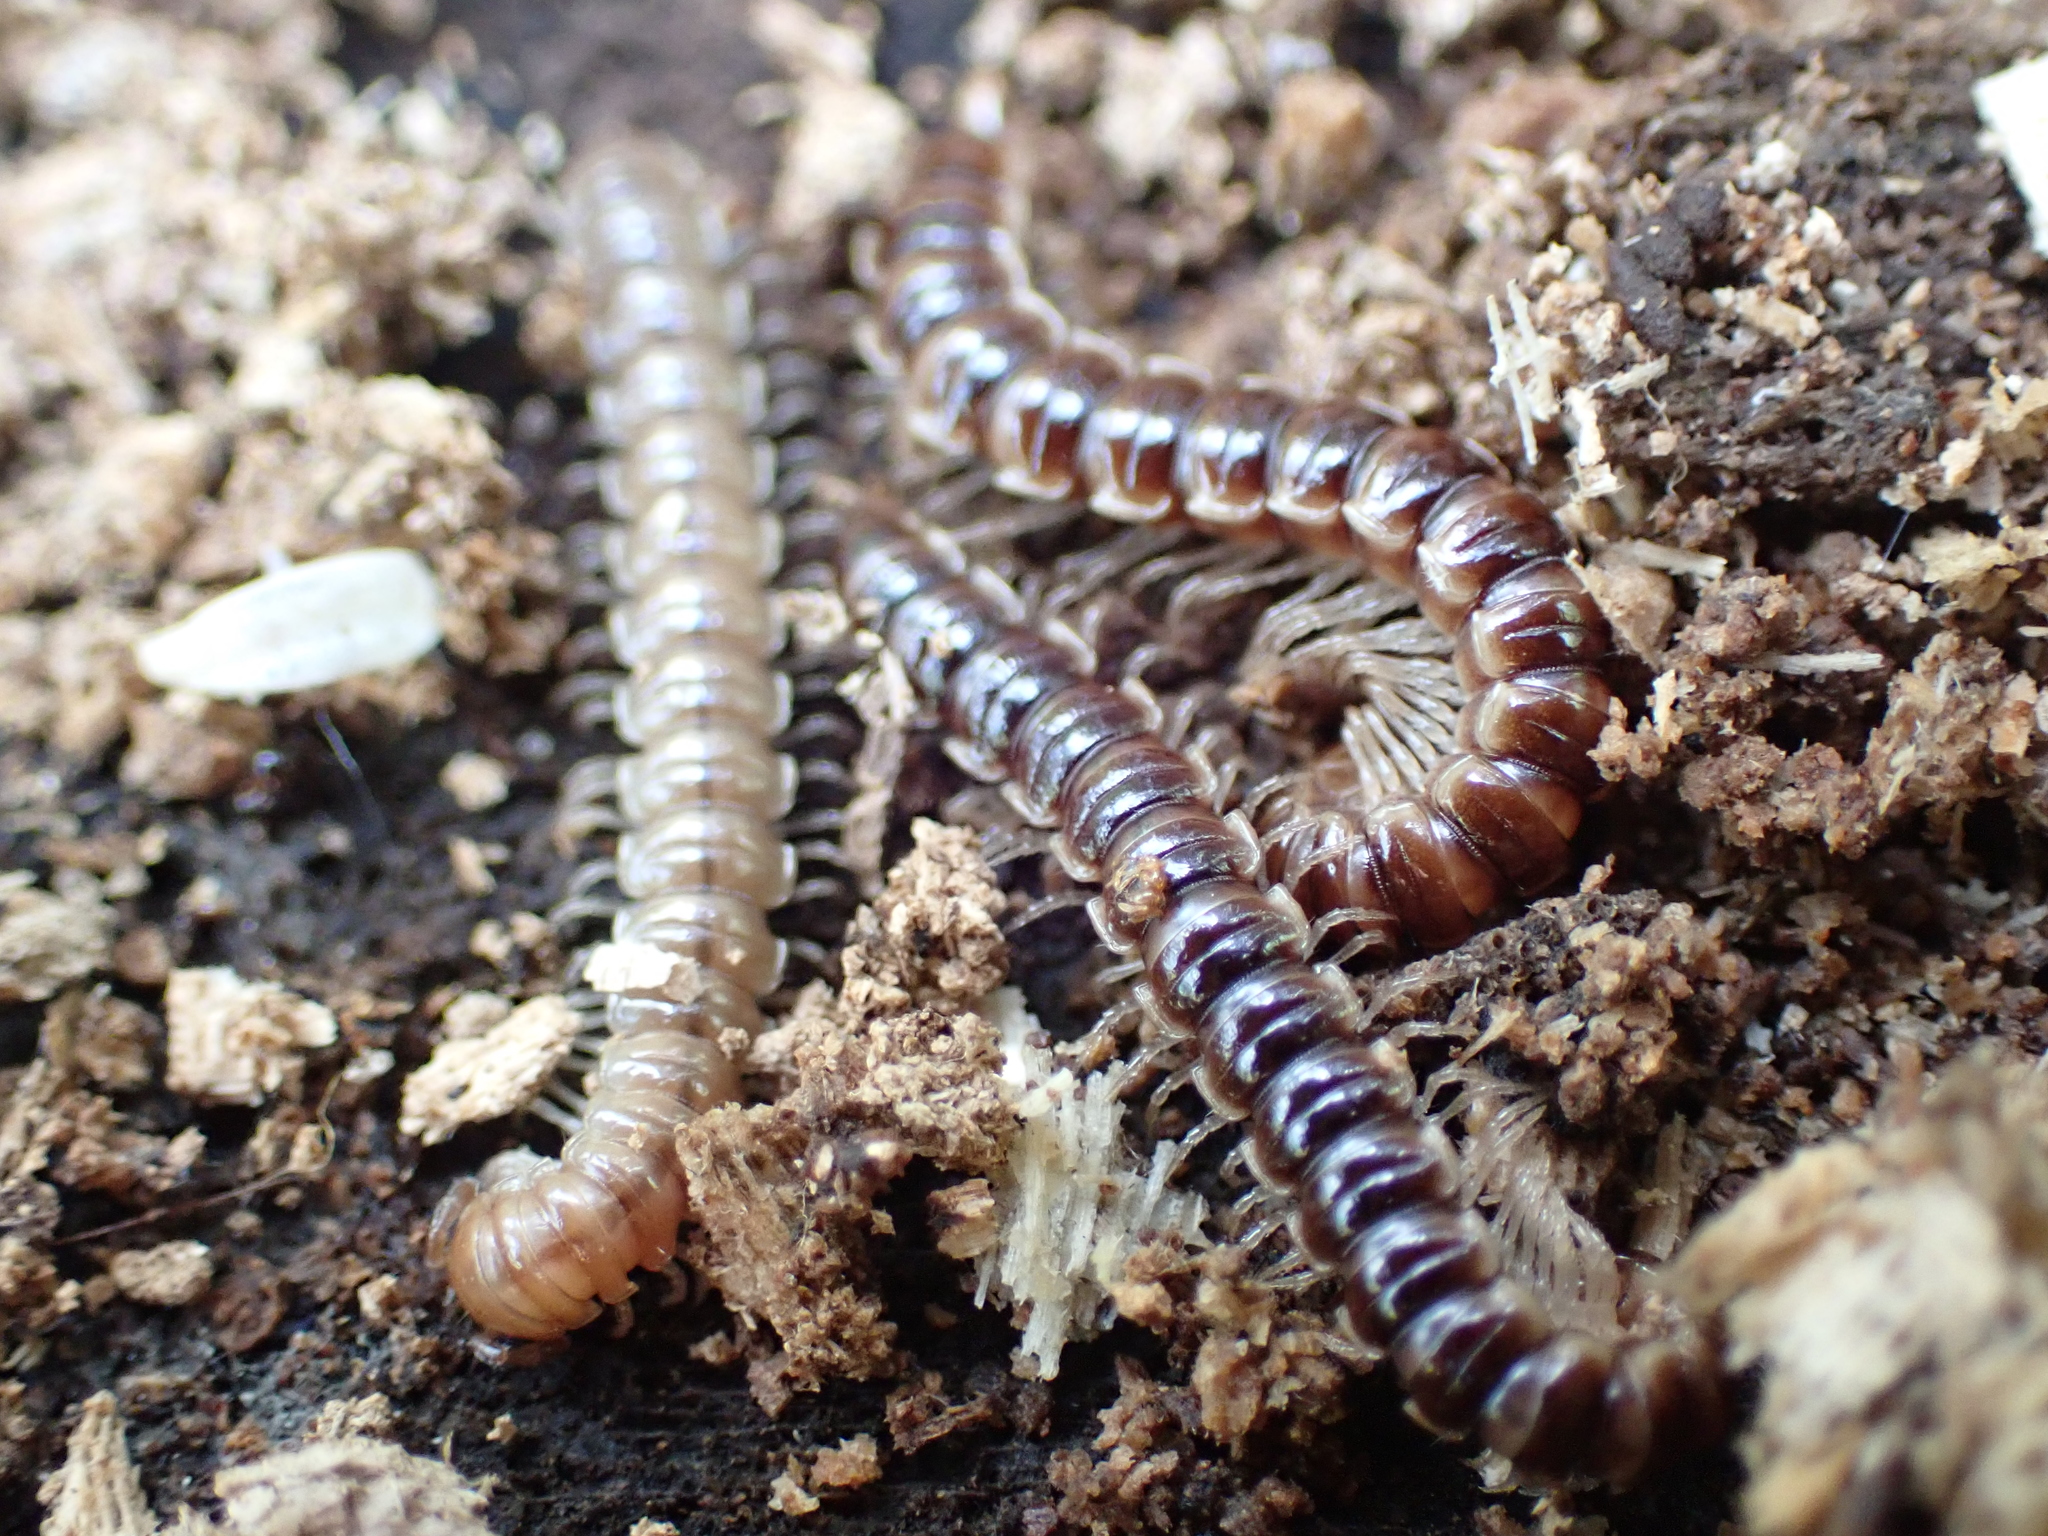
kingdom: Animalia
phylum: Arthropoda
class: Diplopoda
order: Polydesmida
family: Paradoxosomatidae
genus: Oxidus
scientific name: Oxidus gracilis
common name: Greenhouse millipede
